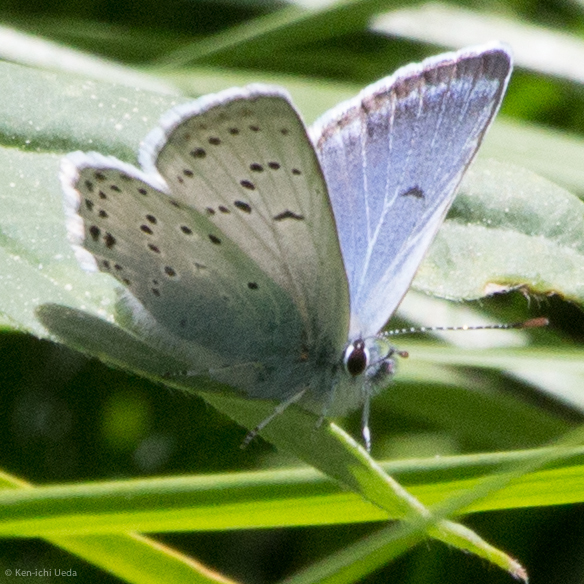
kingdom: Animalia
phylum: Arthropoda
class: Insecta
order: Lepidoptera
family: Lycaenidae
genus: Icaricia
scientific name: Icaricia saepiolus
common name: Greenish blue
